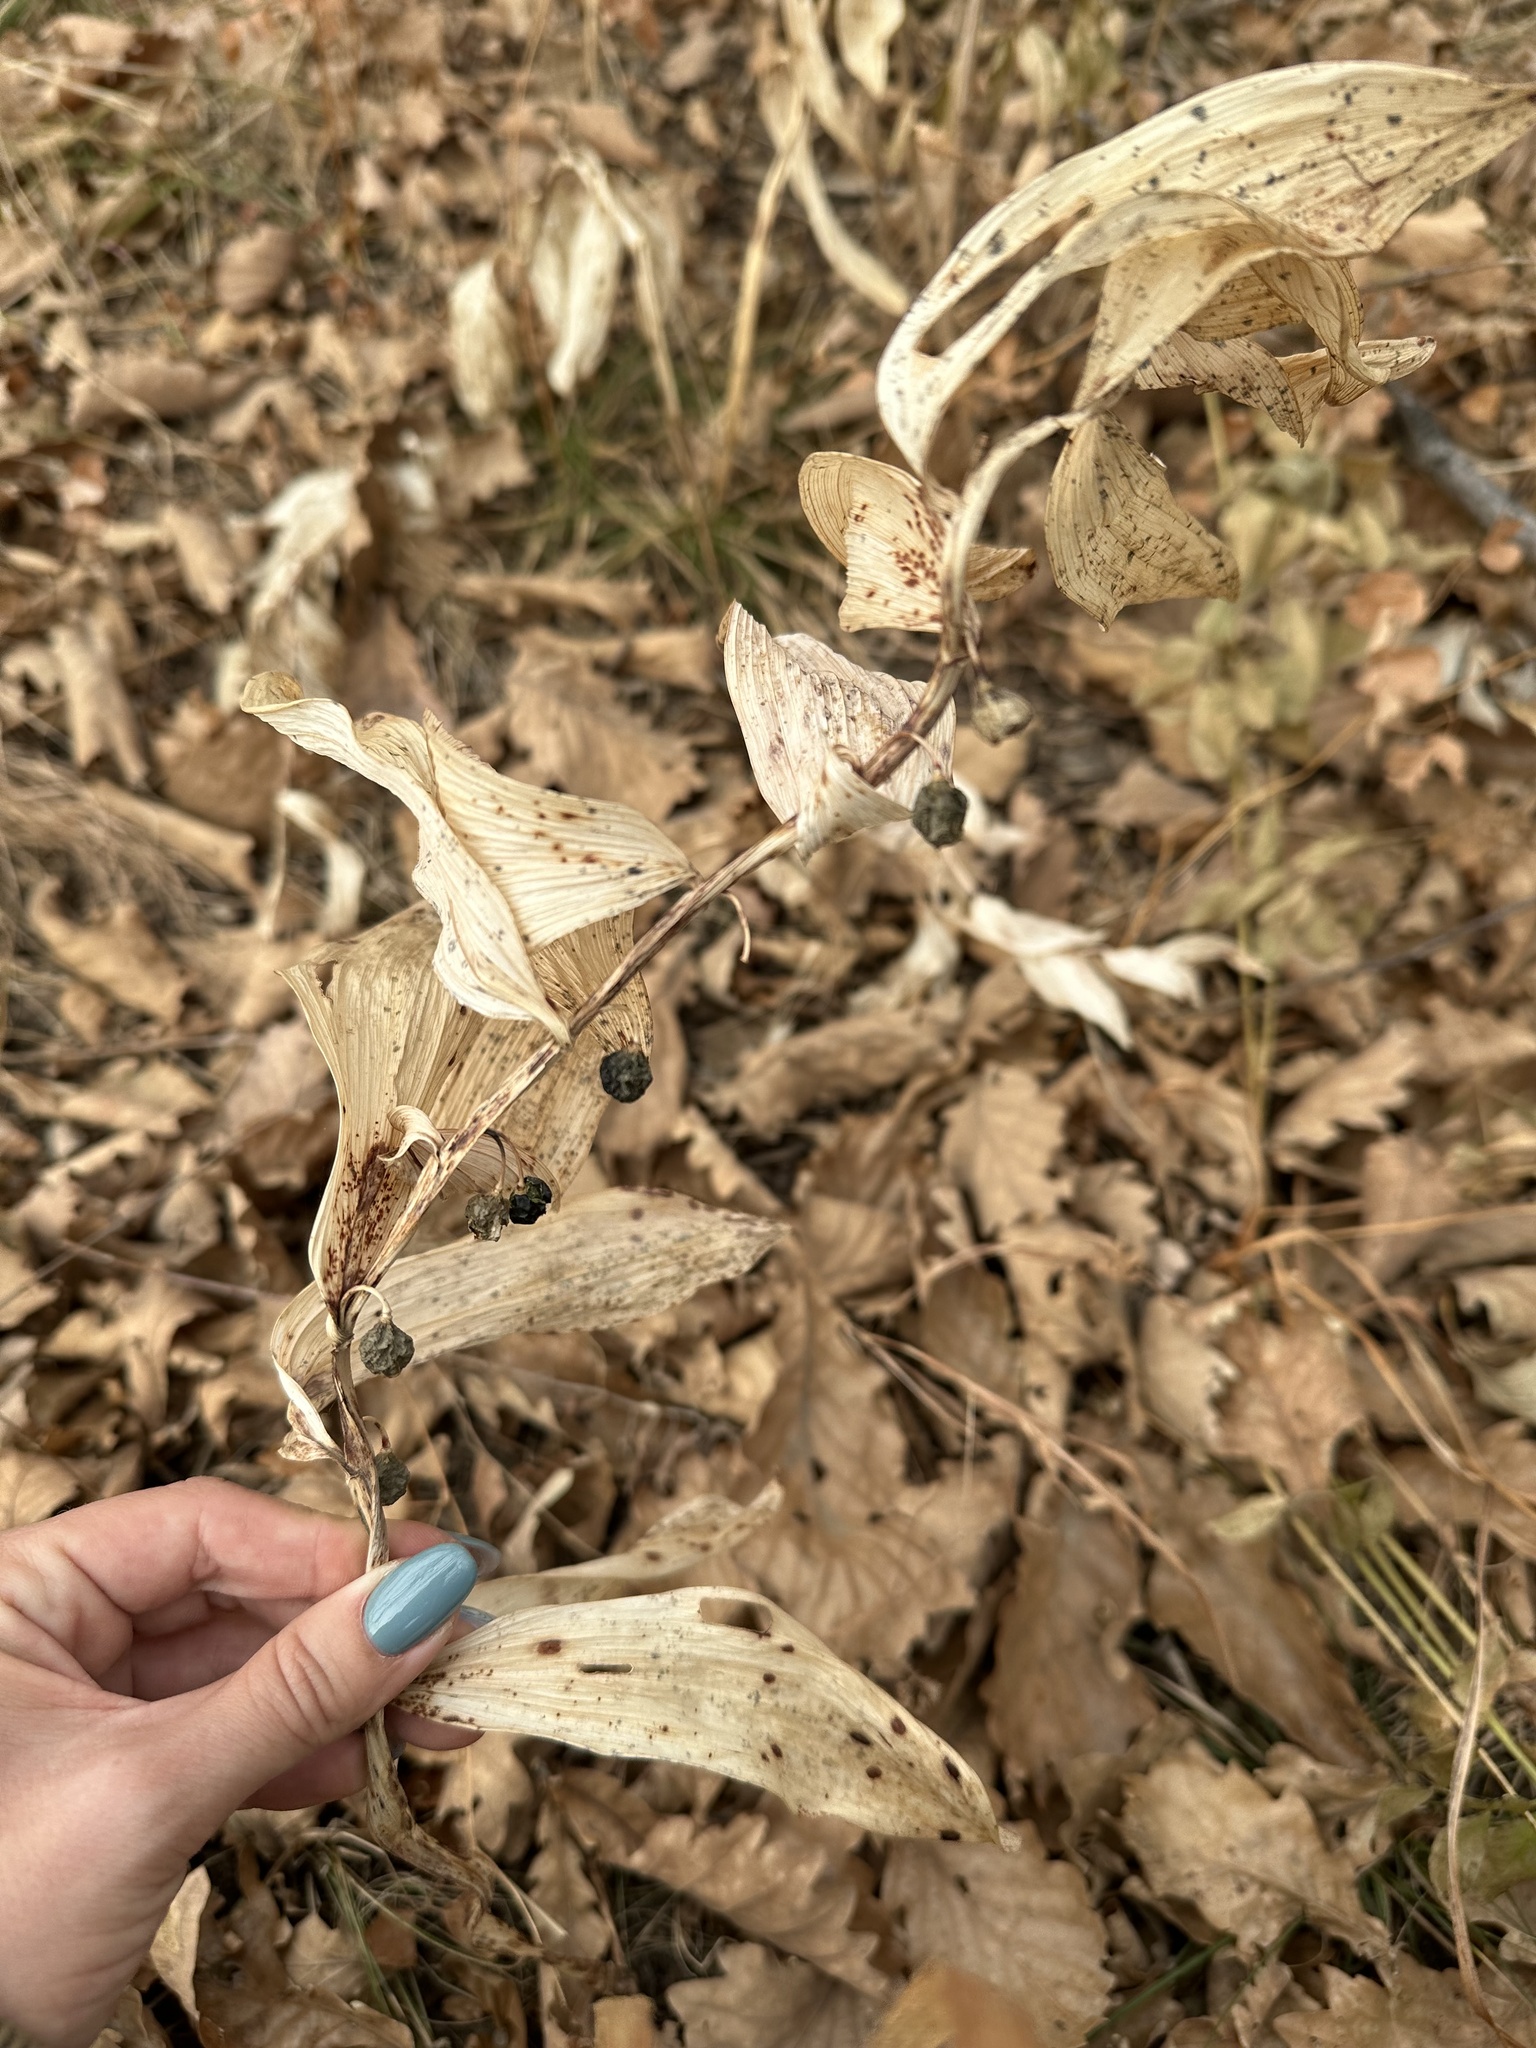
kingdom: Plantae
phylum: Tracheophyta
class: Liliopsida
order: Asparagales
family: Asparagaceae
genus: Polygonatum
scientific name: Polygonatum odoratum
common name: Angular solomon's-seal
